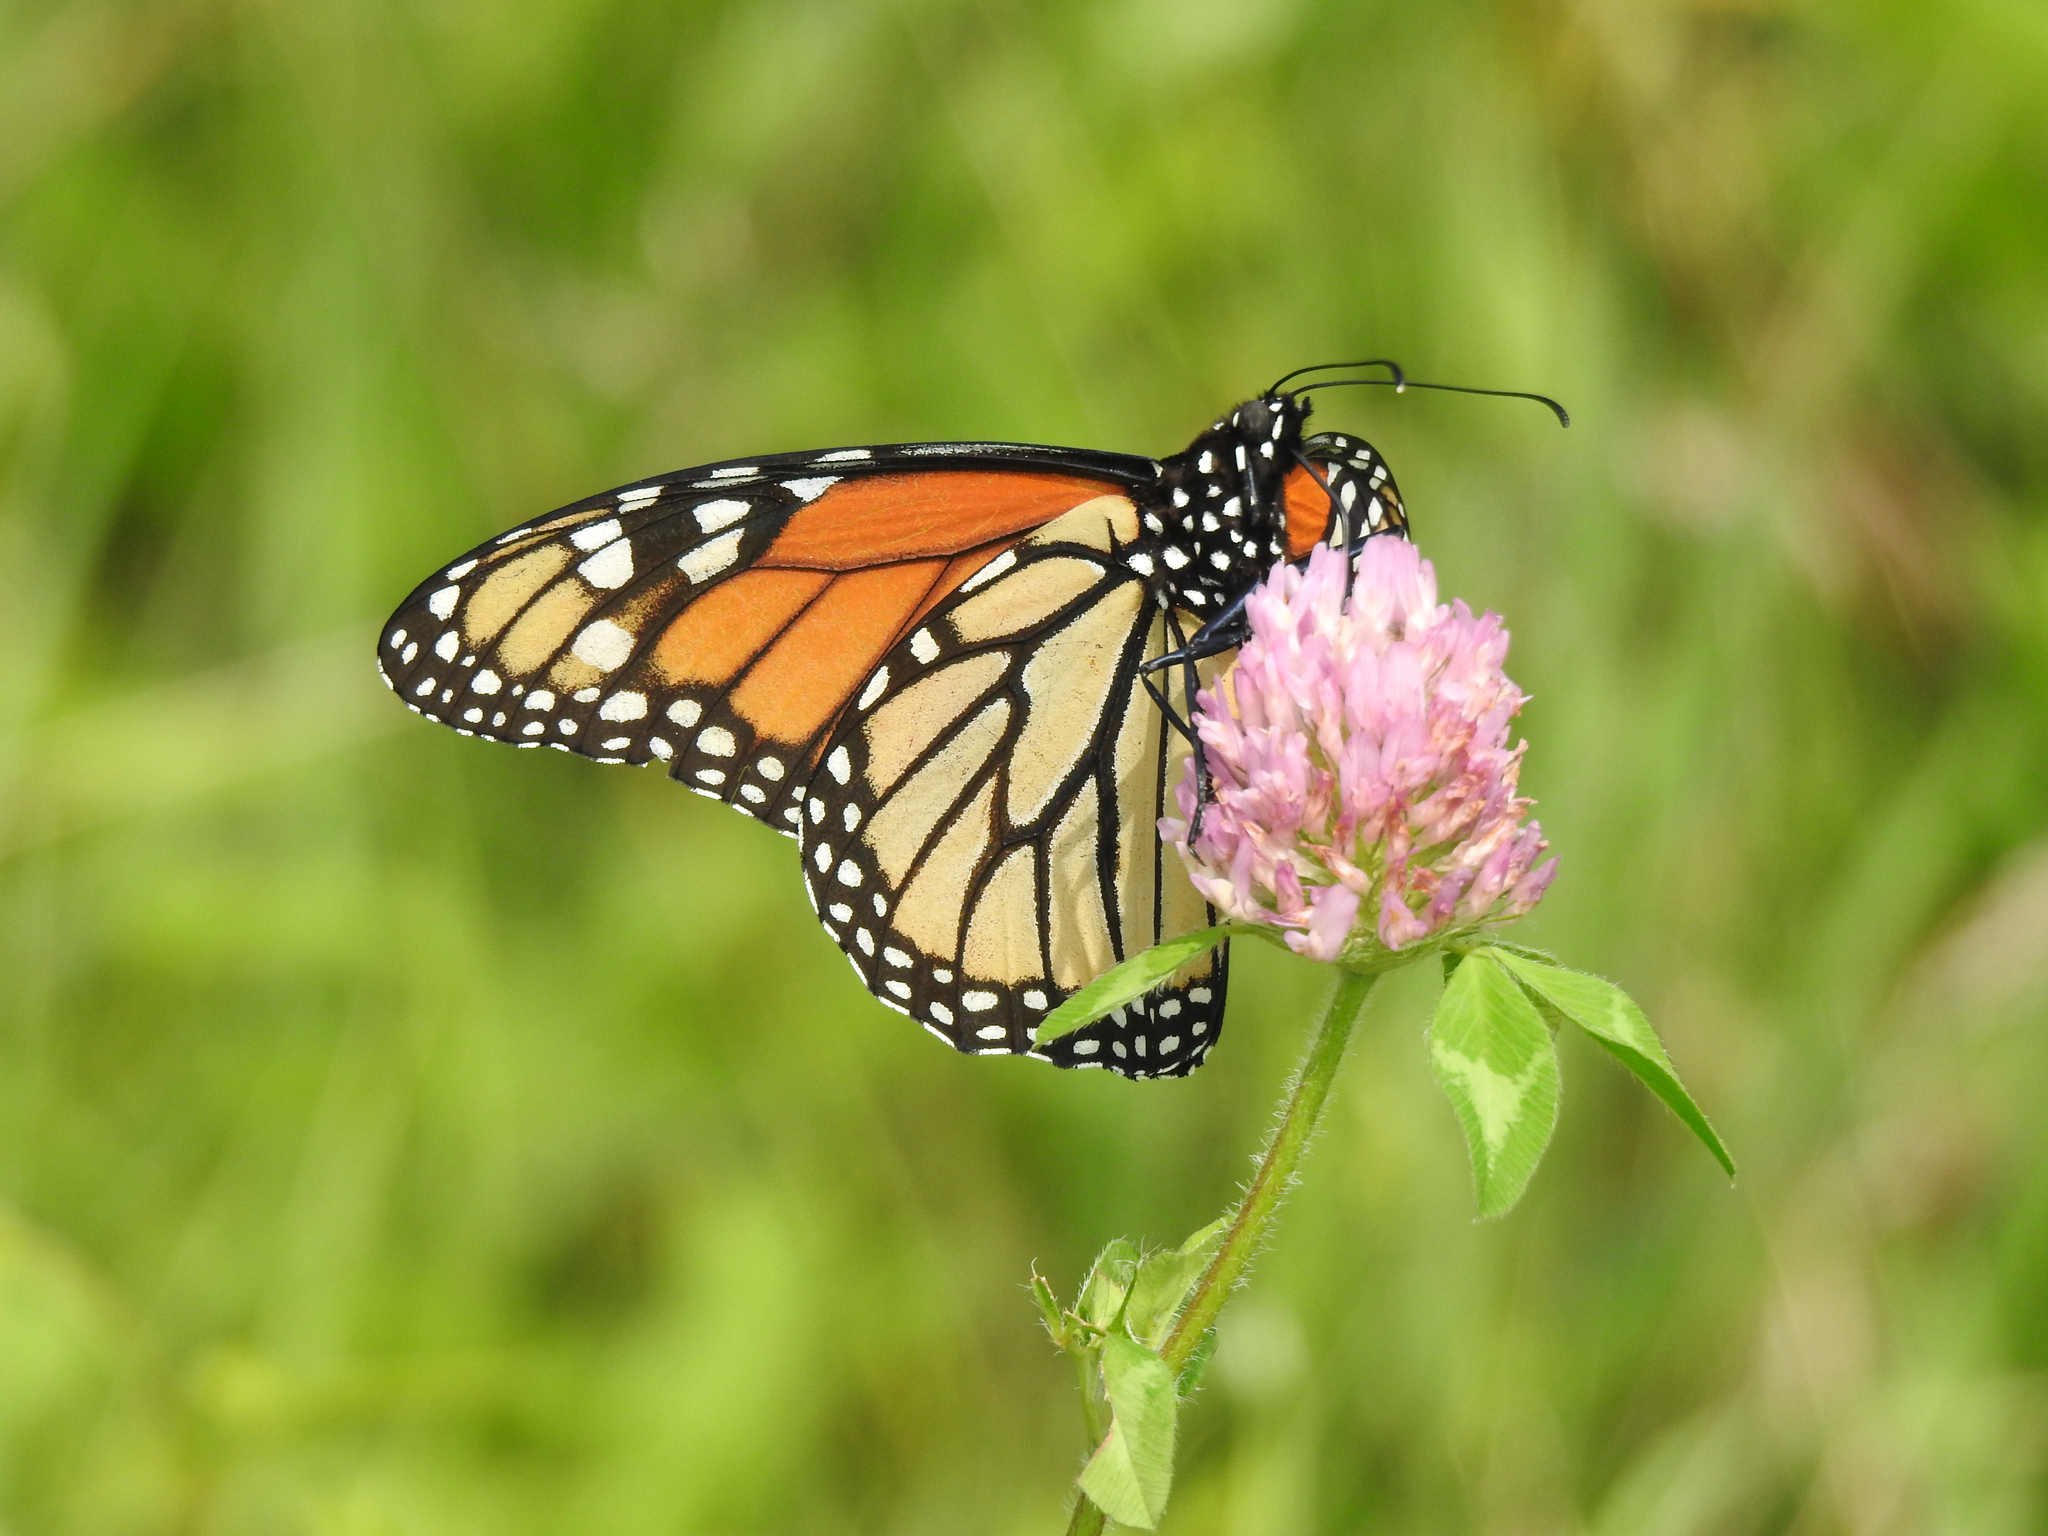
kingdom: Animalia
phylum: Arthropoda
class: Insecta
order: Lepidoptera
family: Nymphalidae
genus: Danaus
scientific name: Danaus plexippus
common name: Monarch
